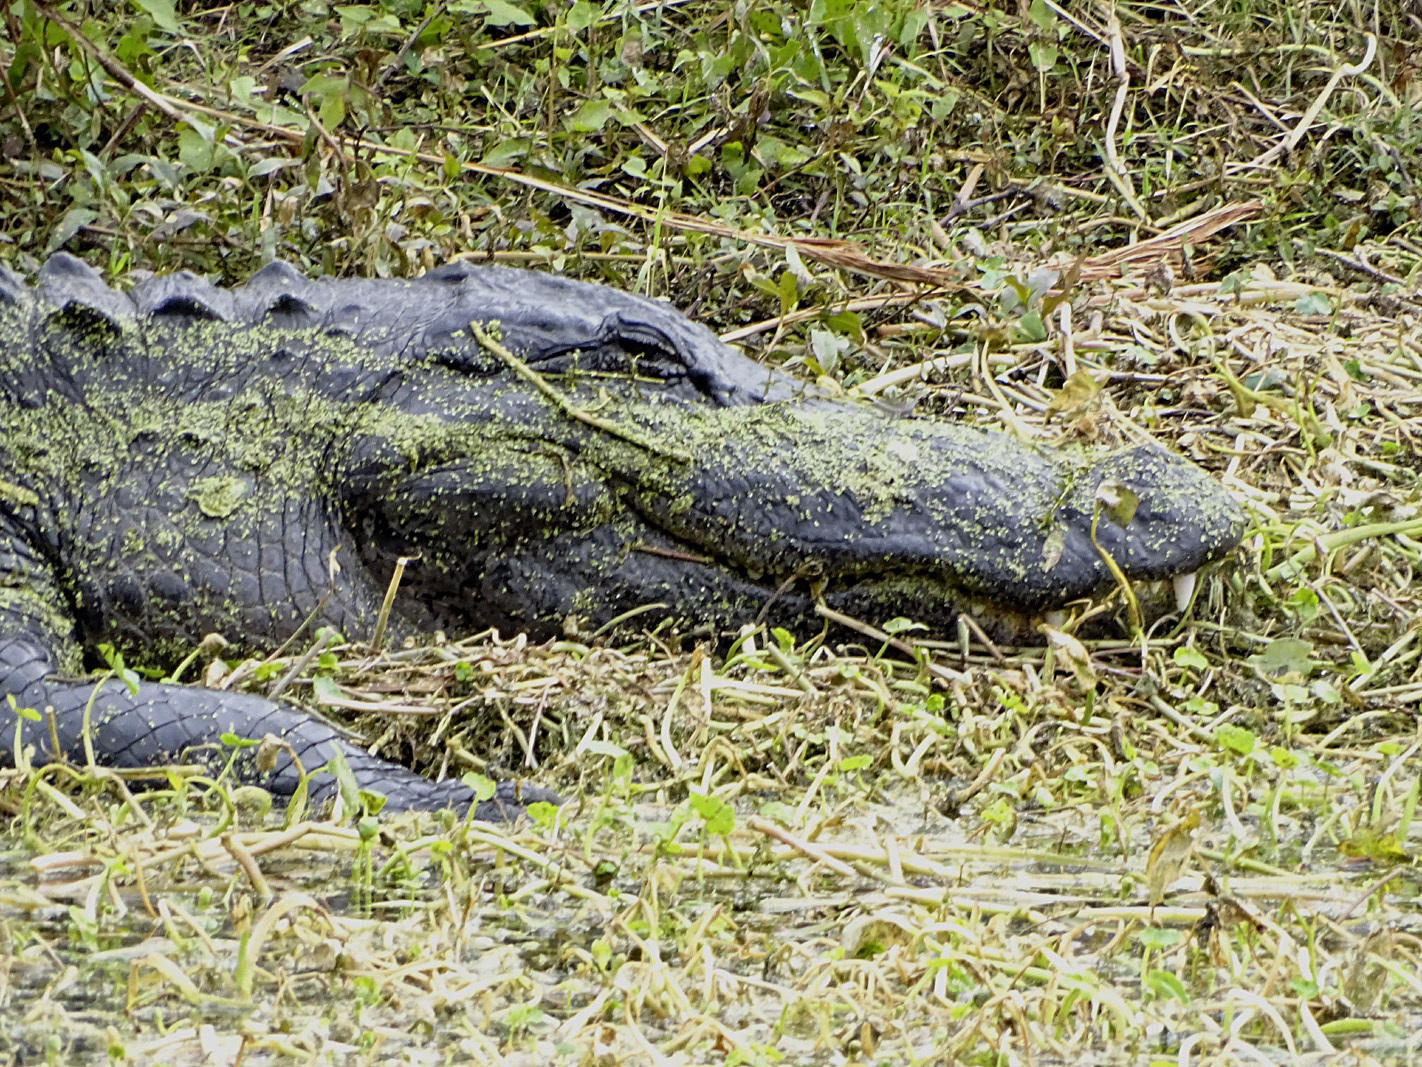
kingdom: Animalia
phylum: Chordata
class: Crocodylia
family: Alligatoridae
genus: Alligator
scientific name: Alligator mississippiensis
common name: American alligator
